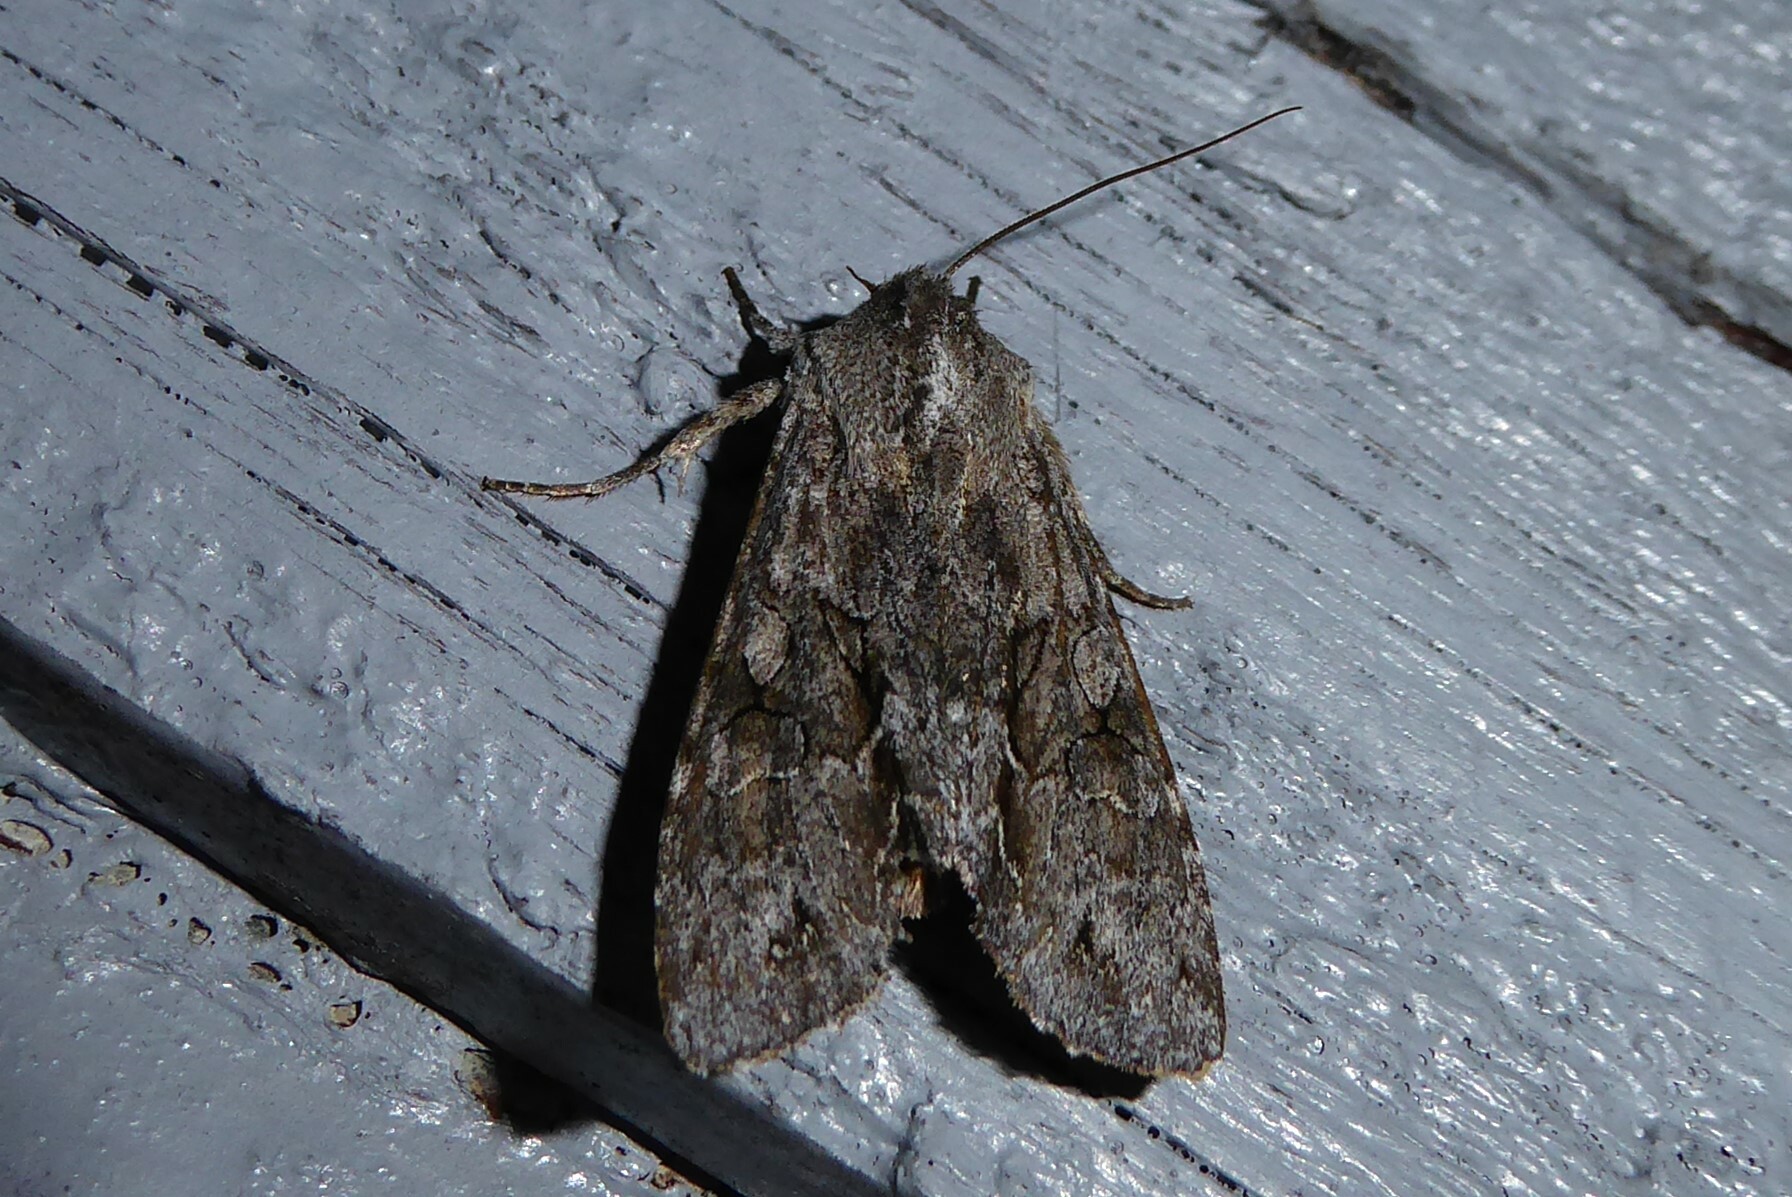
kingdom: Animalia
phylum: Arthropoda
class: Insecta
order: Lepidoptera
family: Noctuidae
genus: Ichneutica
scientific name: Ichneutica
